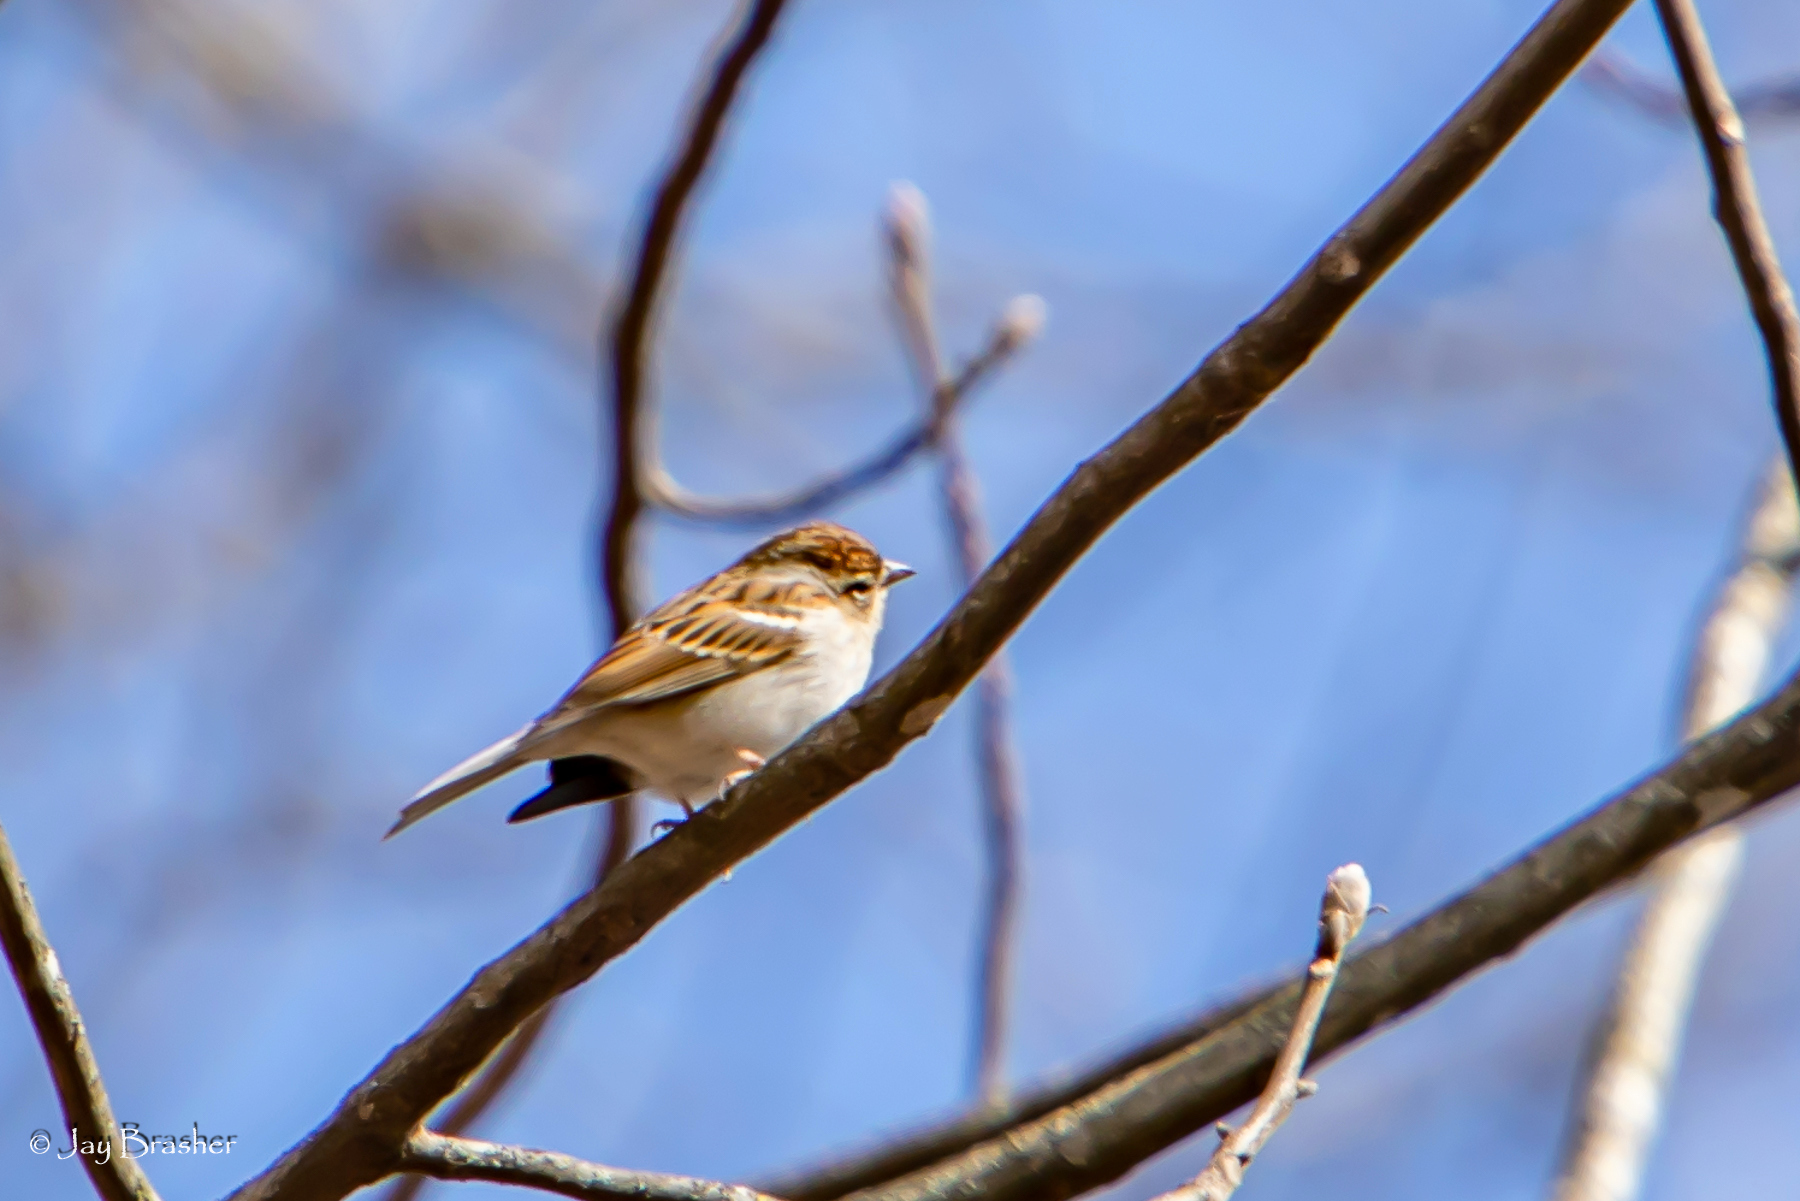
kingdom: Animalia
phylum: Chordata
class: Aves
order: Passeriformes
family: Passerellidae
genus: Spizella
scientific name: Spizella passerina
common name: Chipping sparrow
